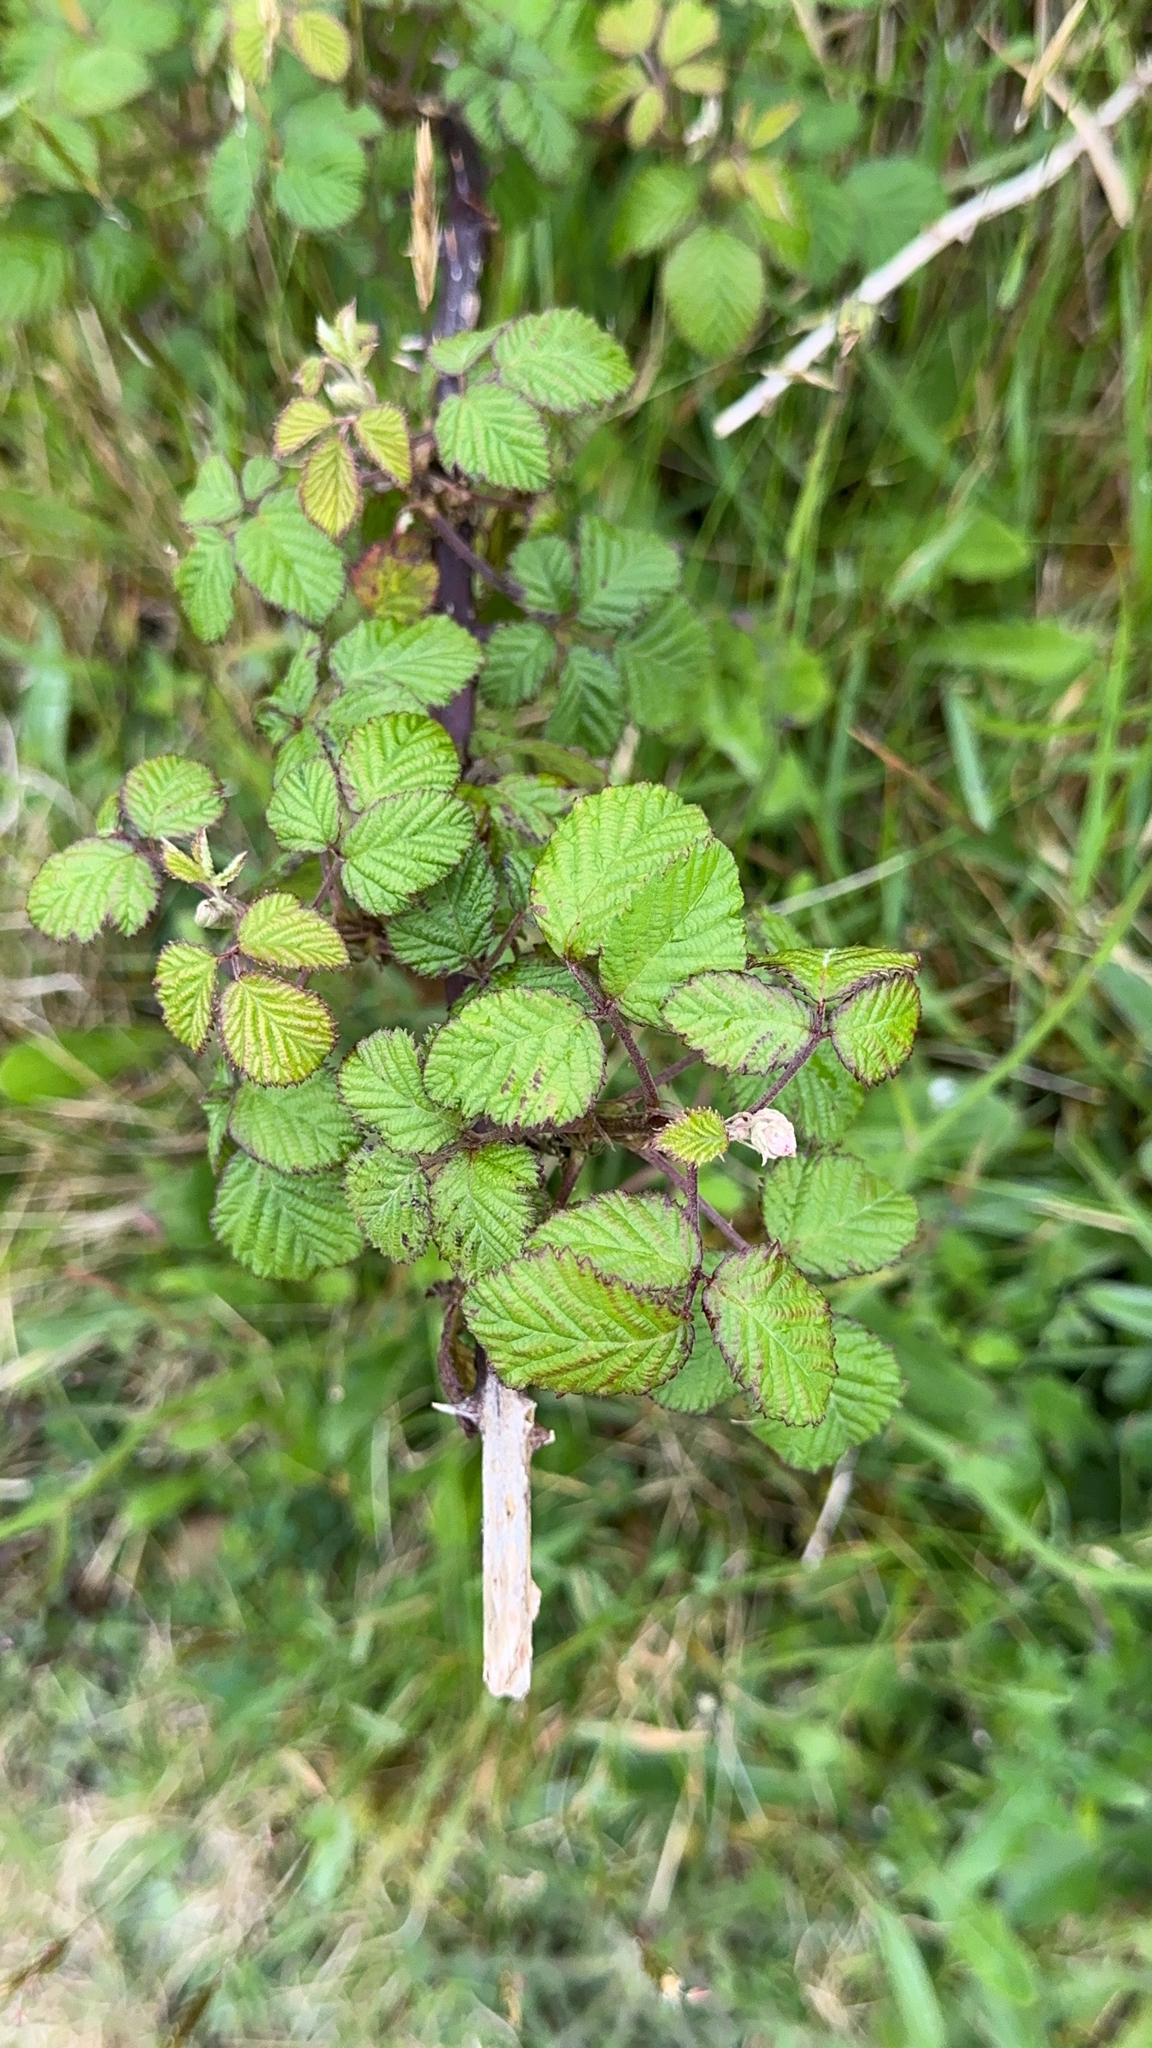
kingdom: Plantae
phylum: Tracheophyta
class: Magnoliopsida
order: Rosales
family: Rosaceae
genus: Rubus
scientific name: Rubus ulmifolius
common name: Elmleaf blackberry
